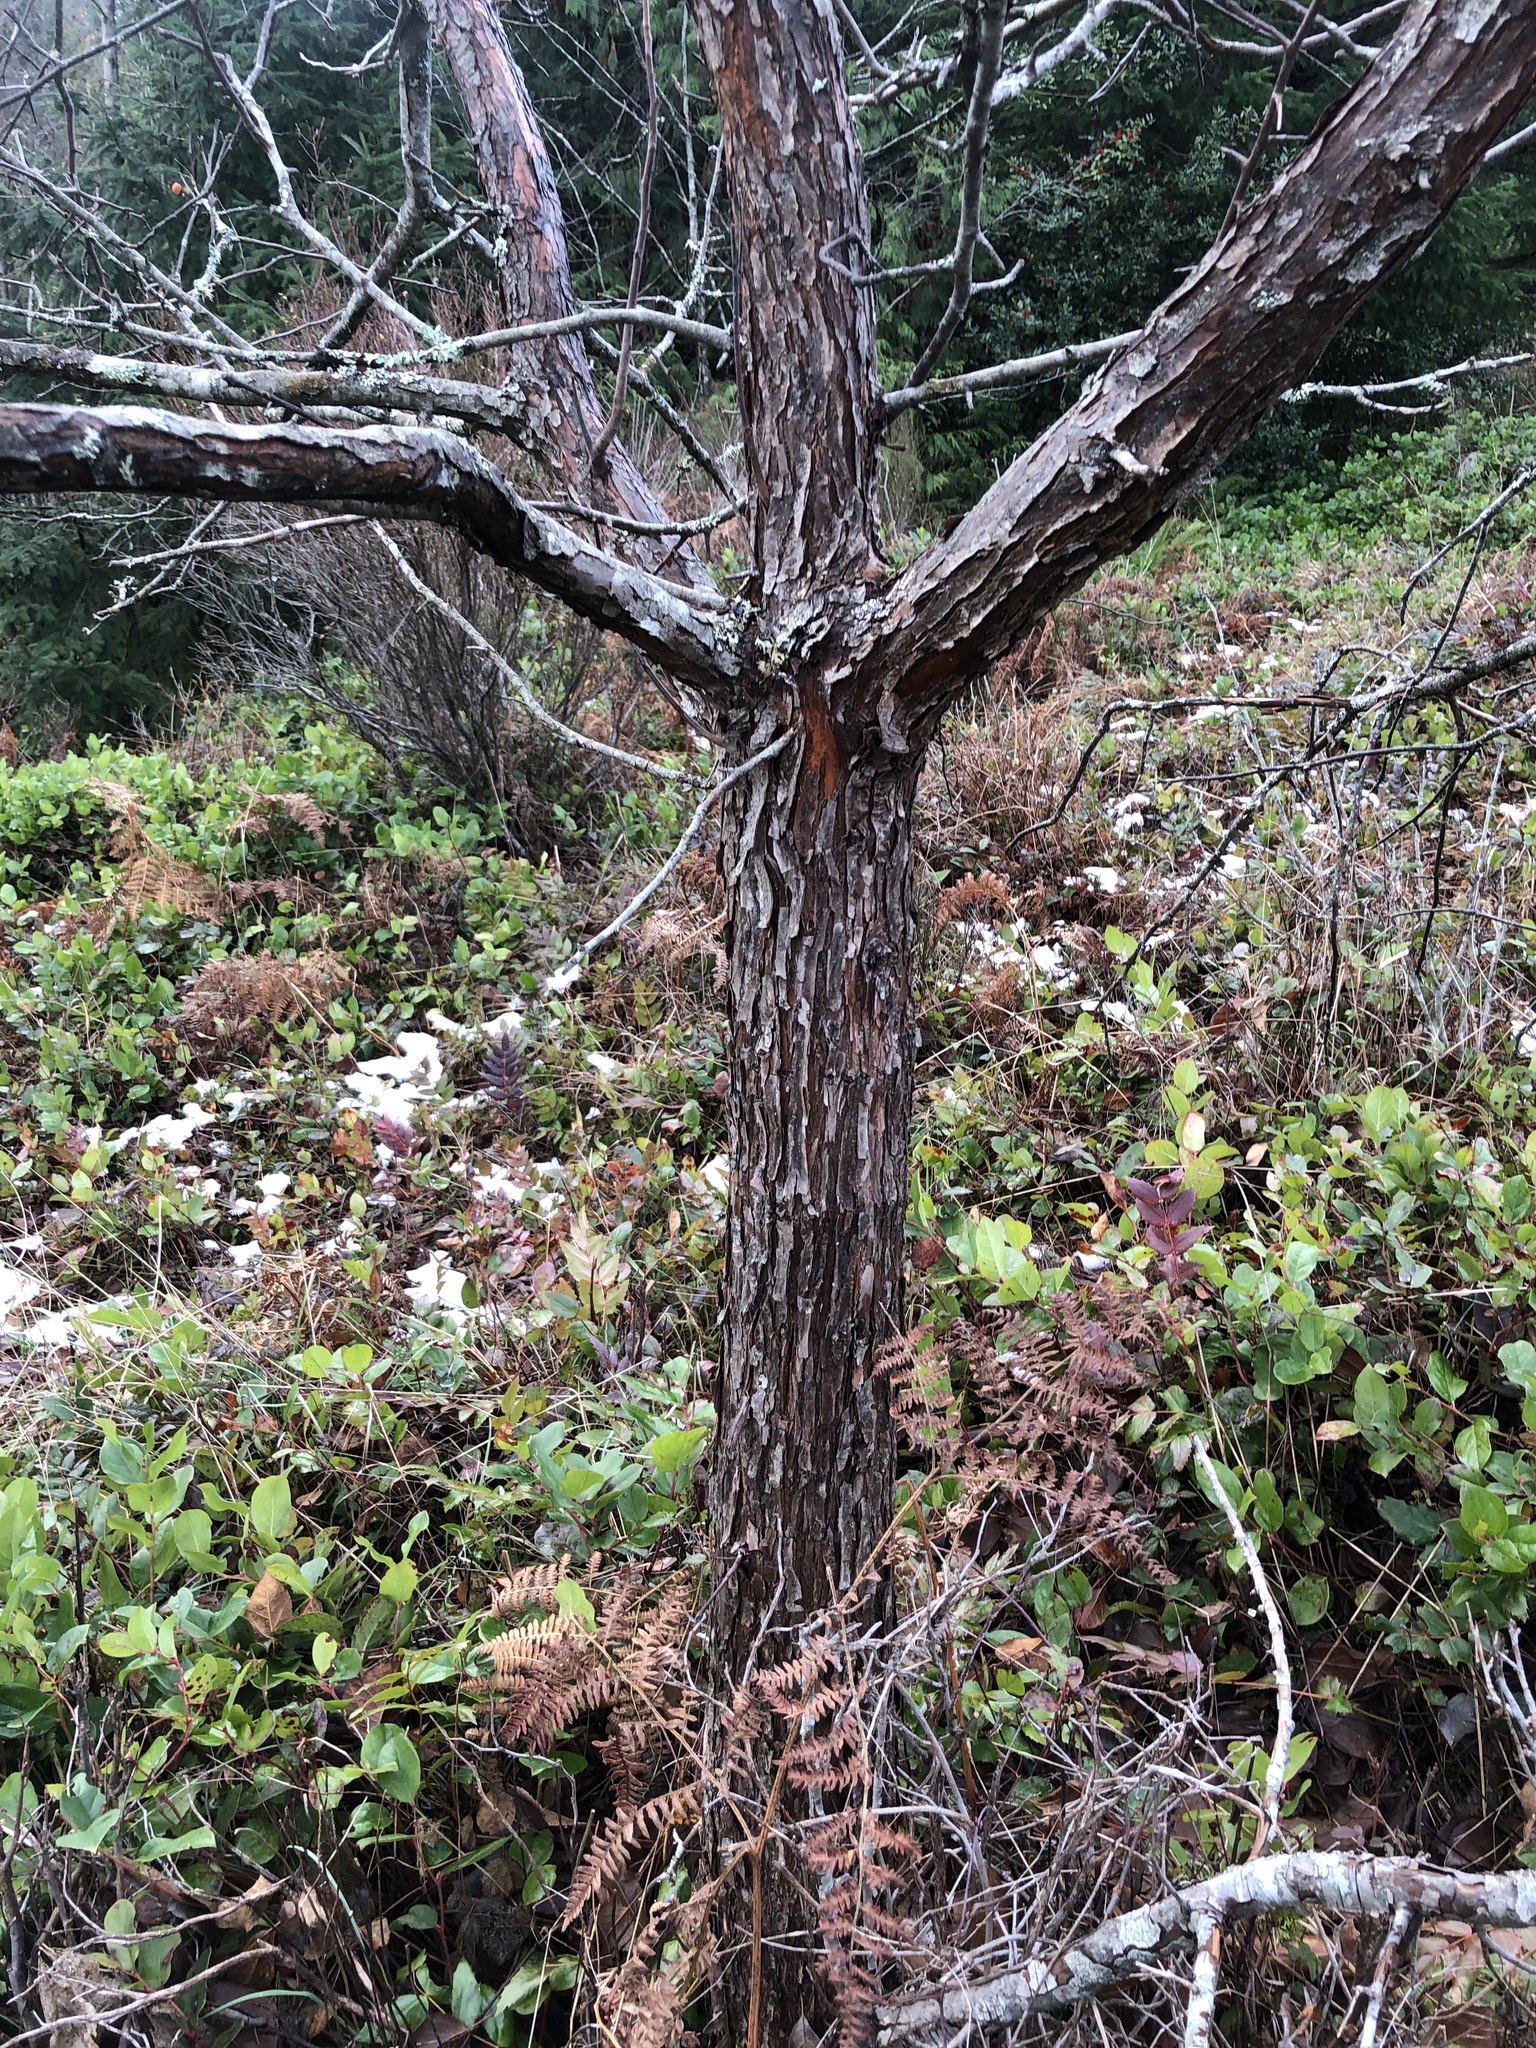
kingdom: Plantae
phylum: Tracheophyta
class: Magnoliopsida
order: Rosales
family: Rosaceae
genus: Malus
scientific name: Malus fusca
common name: Oregon crab apple
